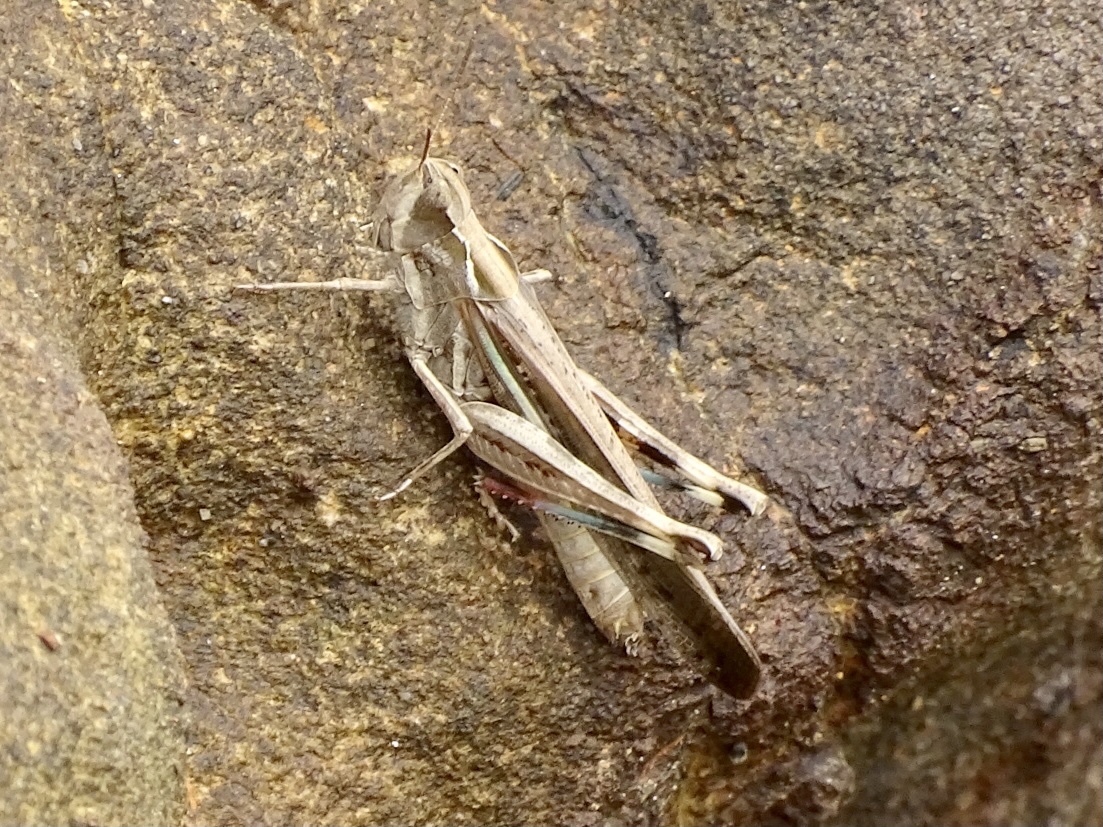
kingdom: Animalia
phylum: Arthropoda
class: Insecta
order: Orthoptera
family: Acrididae
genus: Aiolopus
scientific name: Aiolopus thalassinus
